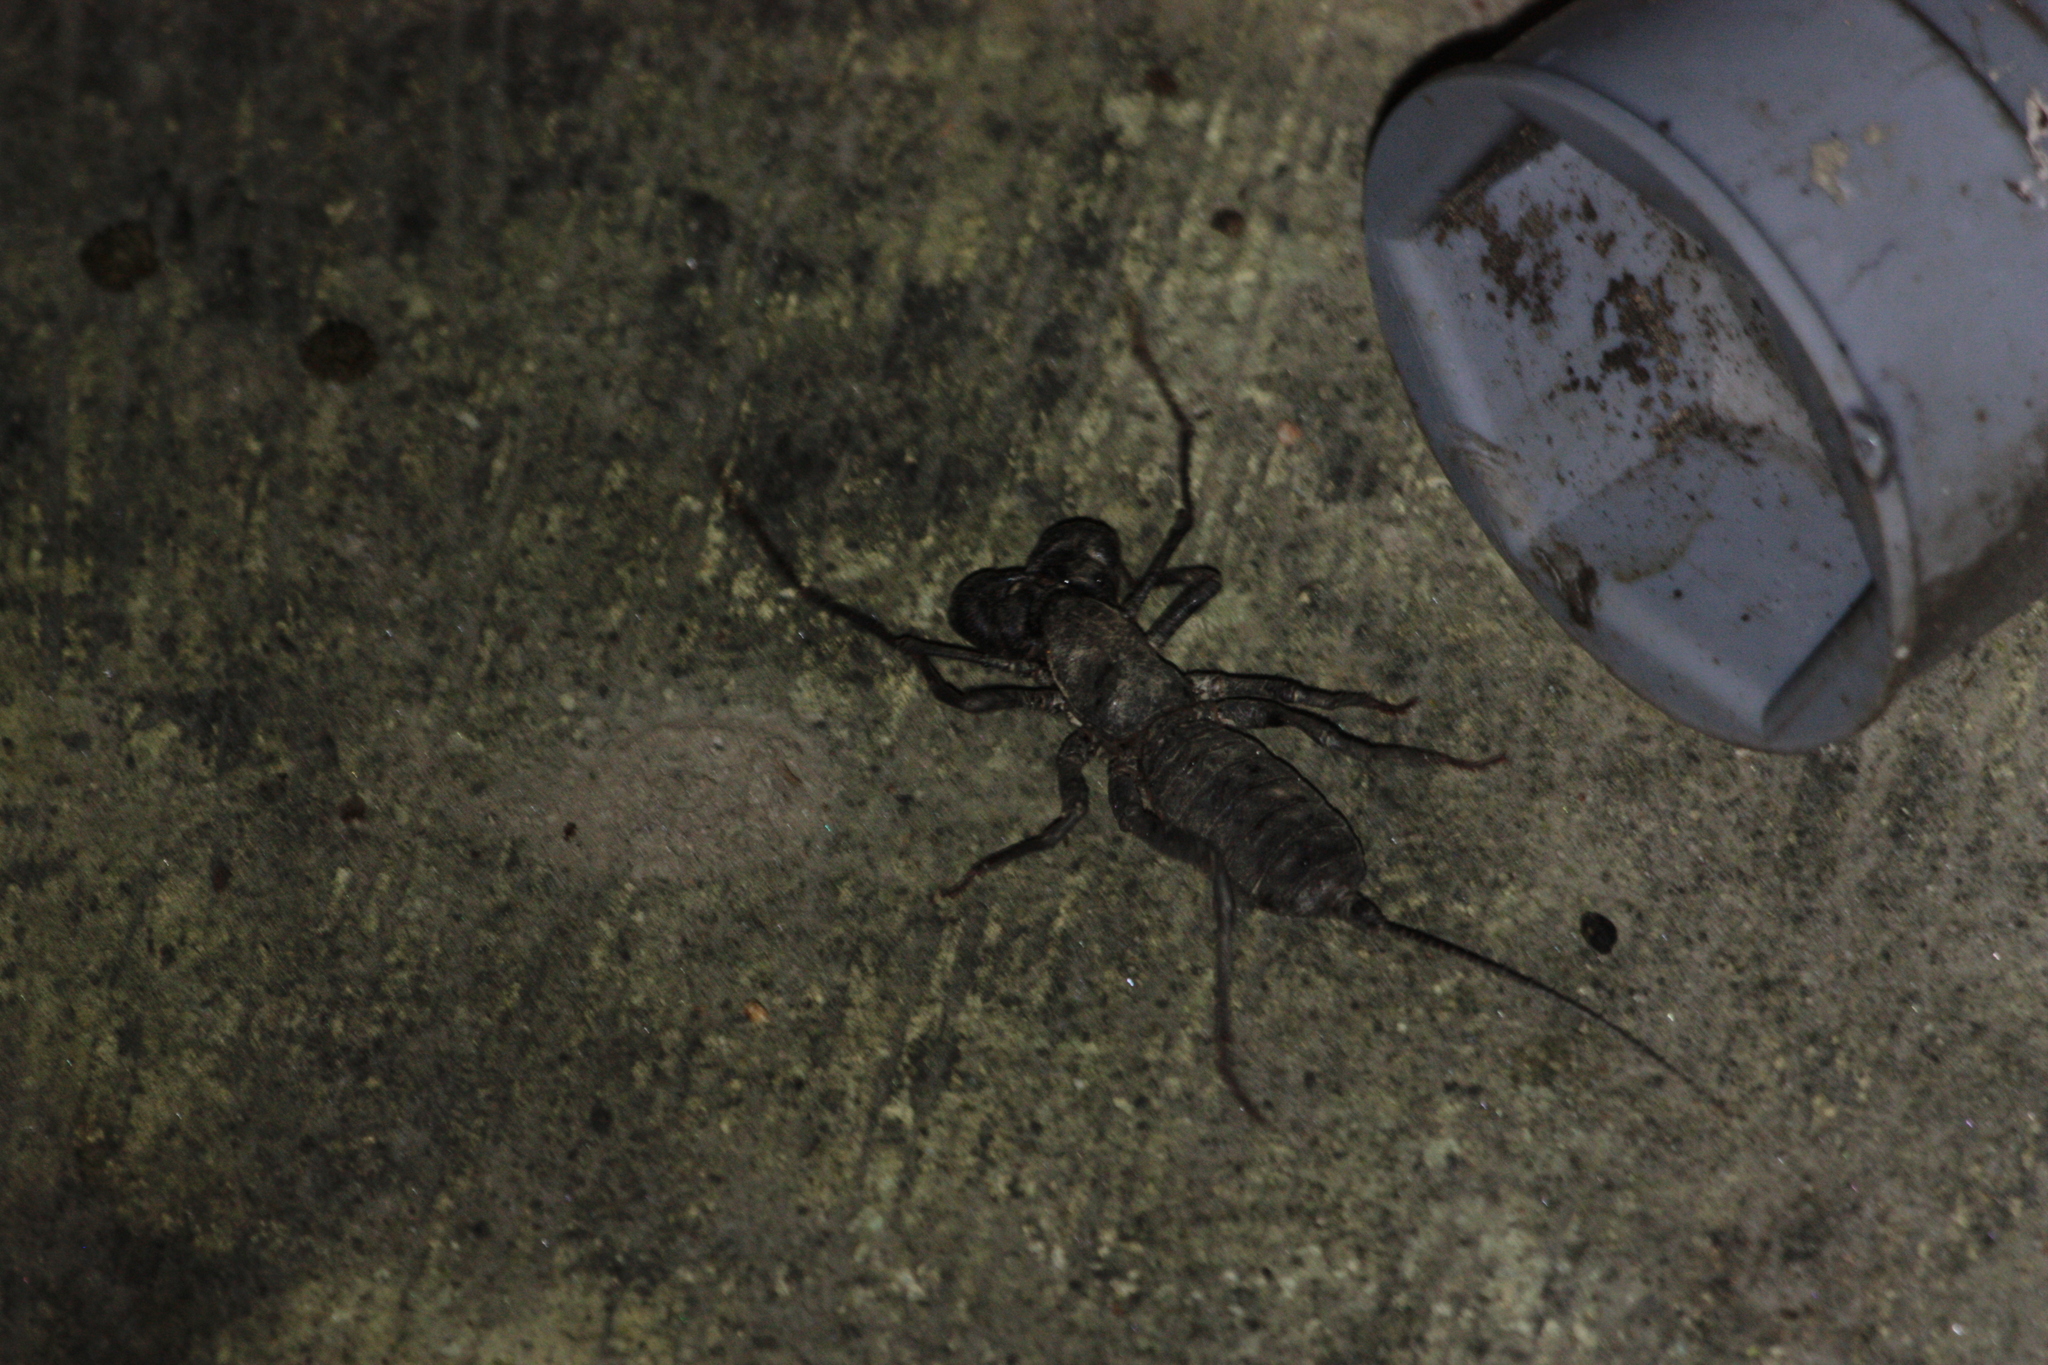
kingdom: Animalia
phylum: Arthropoda
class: Arachnida
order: Uropygi
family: Thelyphonidae
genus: Typopeltis
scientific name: Typopeltis crucifer
